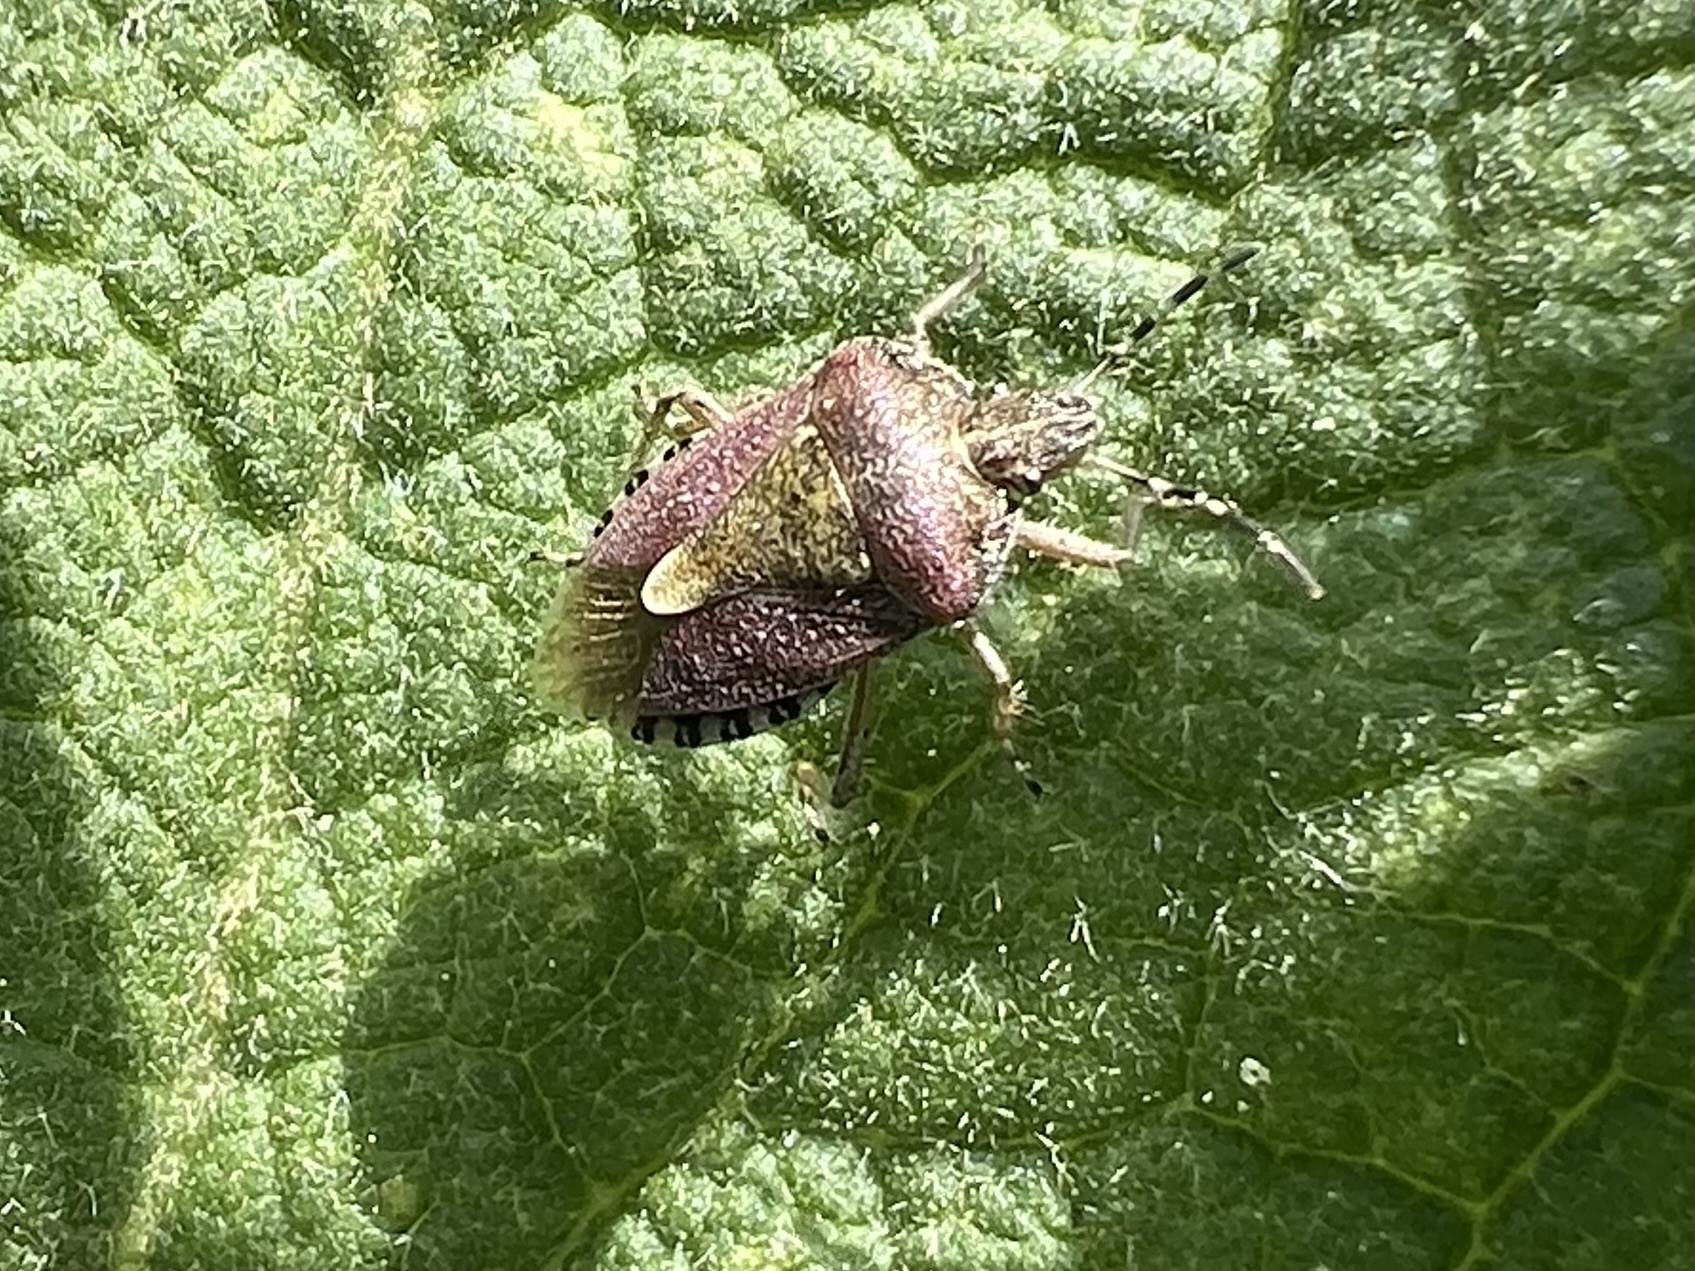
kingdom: Animalia
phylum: Arthropoda
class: Insecta
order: Hemiptera
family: Pentatomidae
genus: Dolycoris
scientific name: Dolycoris baccarum
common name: Sloe bug
